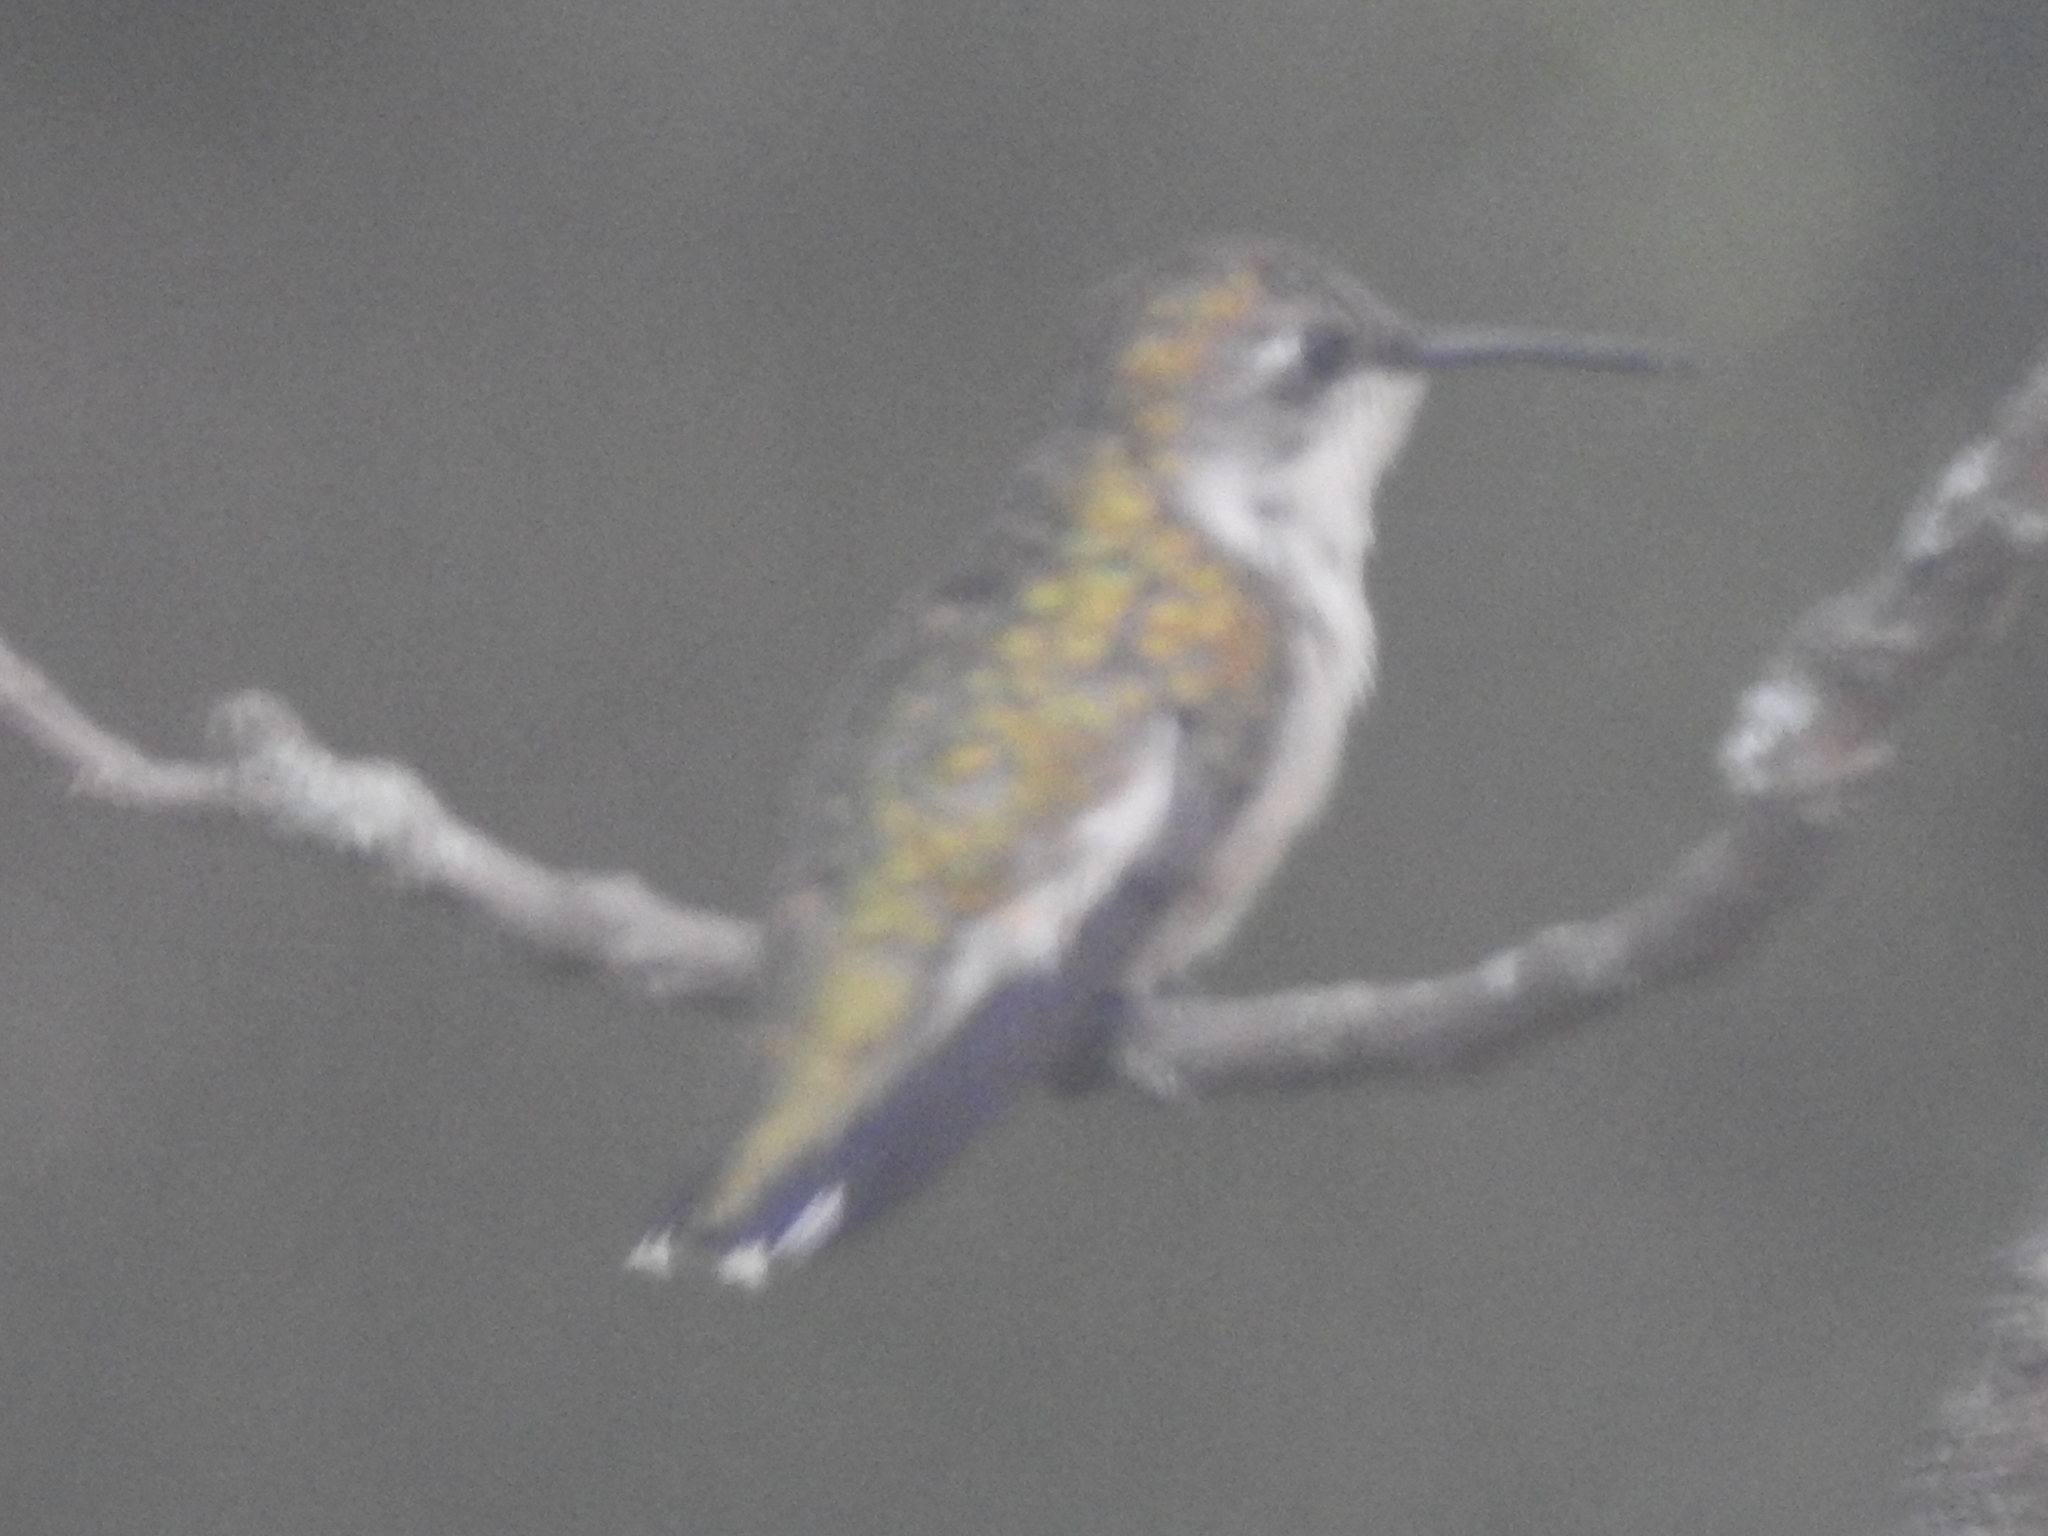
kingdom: Animalia
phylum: Chordata
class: Aves
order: Apodiformes
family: Trochilidae
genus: Archilochus
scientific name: Archilochus colubris
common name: Ruby-throated hummingbird
